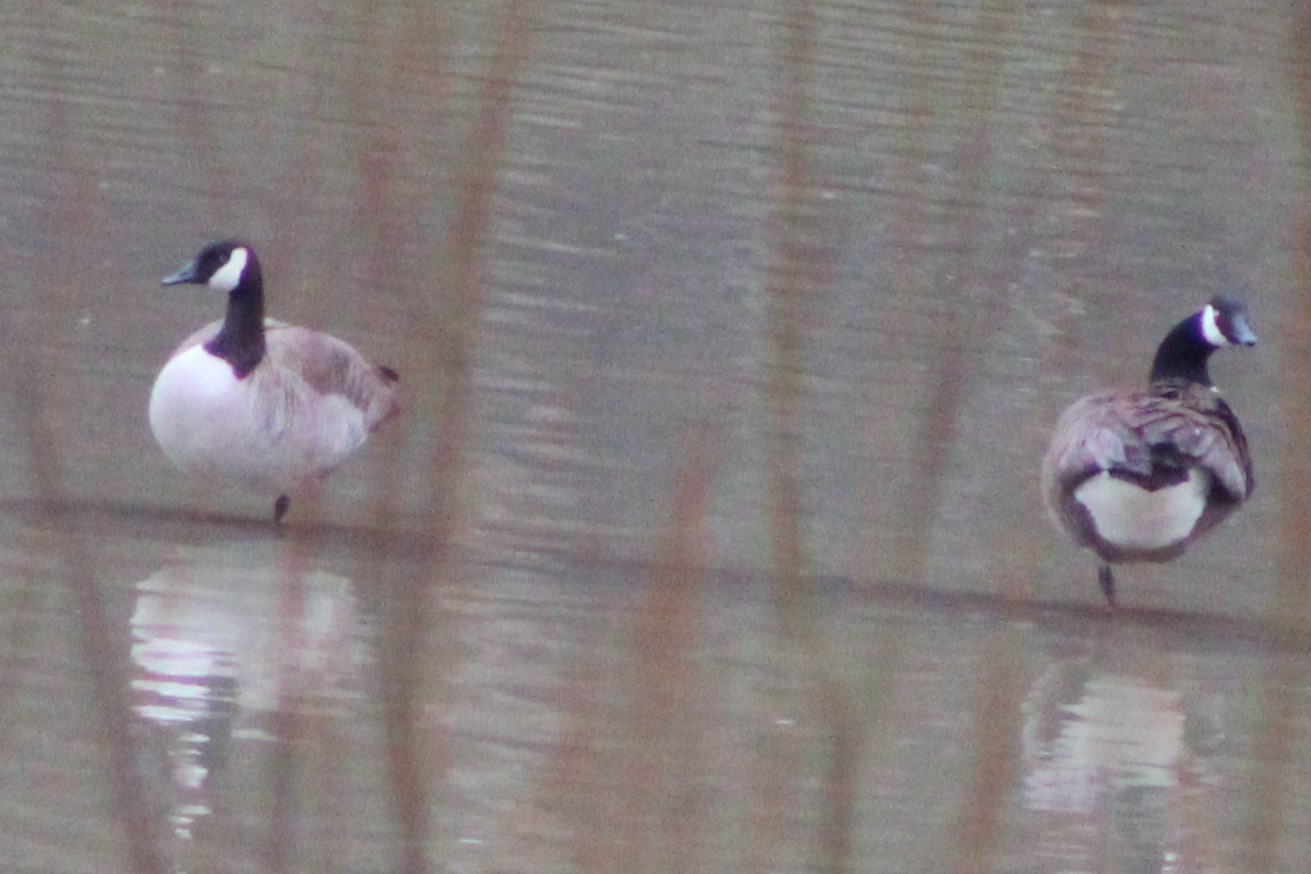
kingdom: Animalia
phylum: Chordata
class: Aves
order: Anseriformes
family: Anatidae
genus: Branta
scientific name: Branta canadensis
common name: Canada goose
